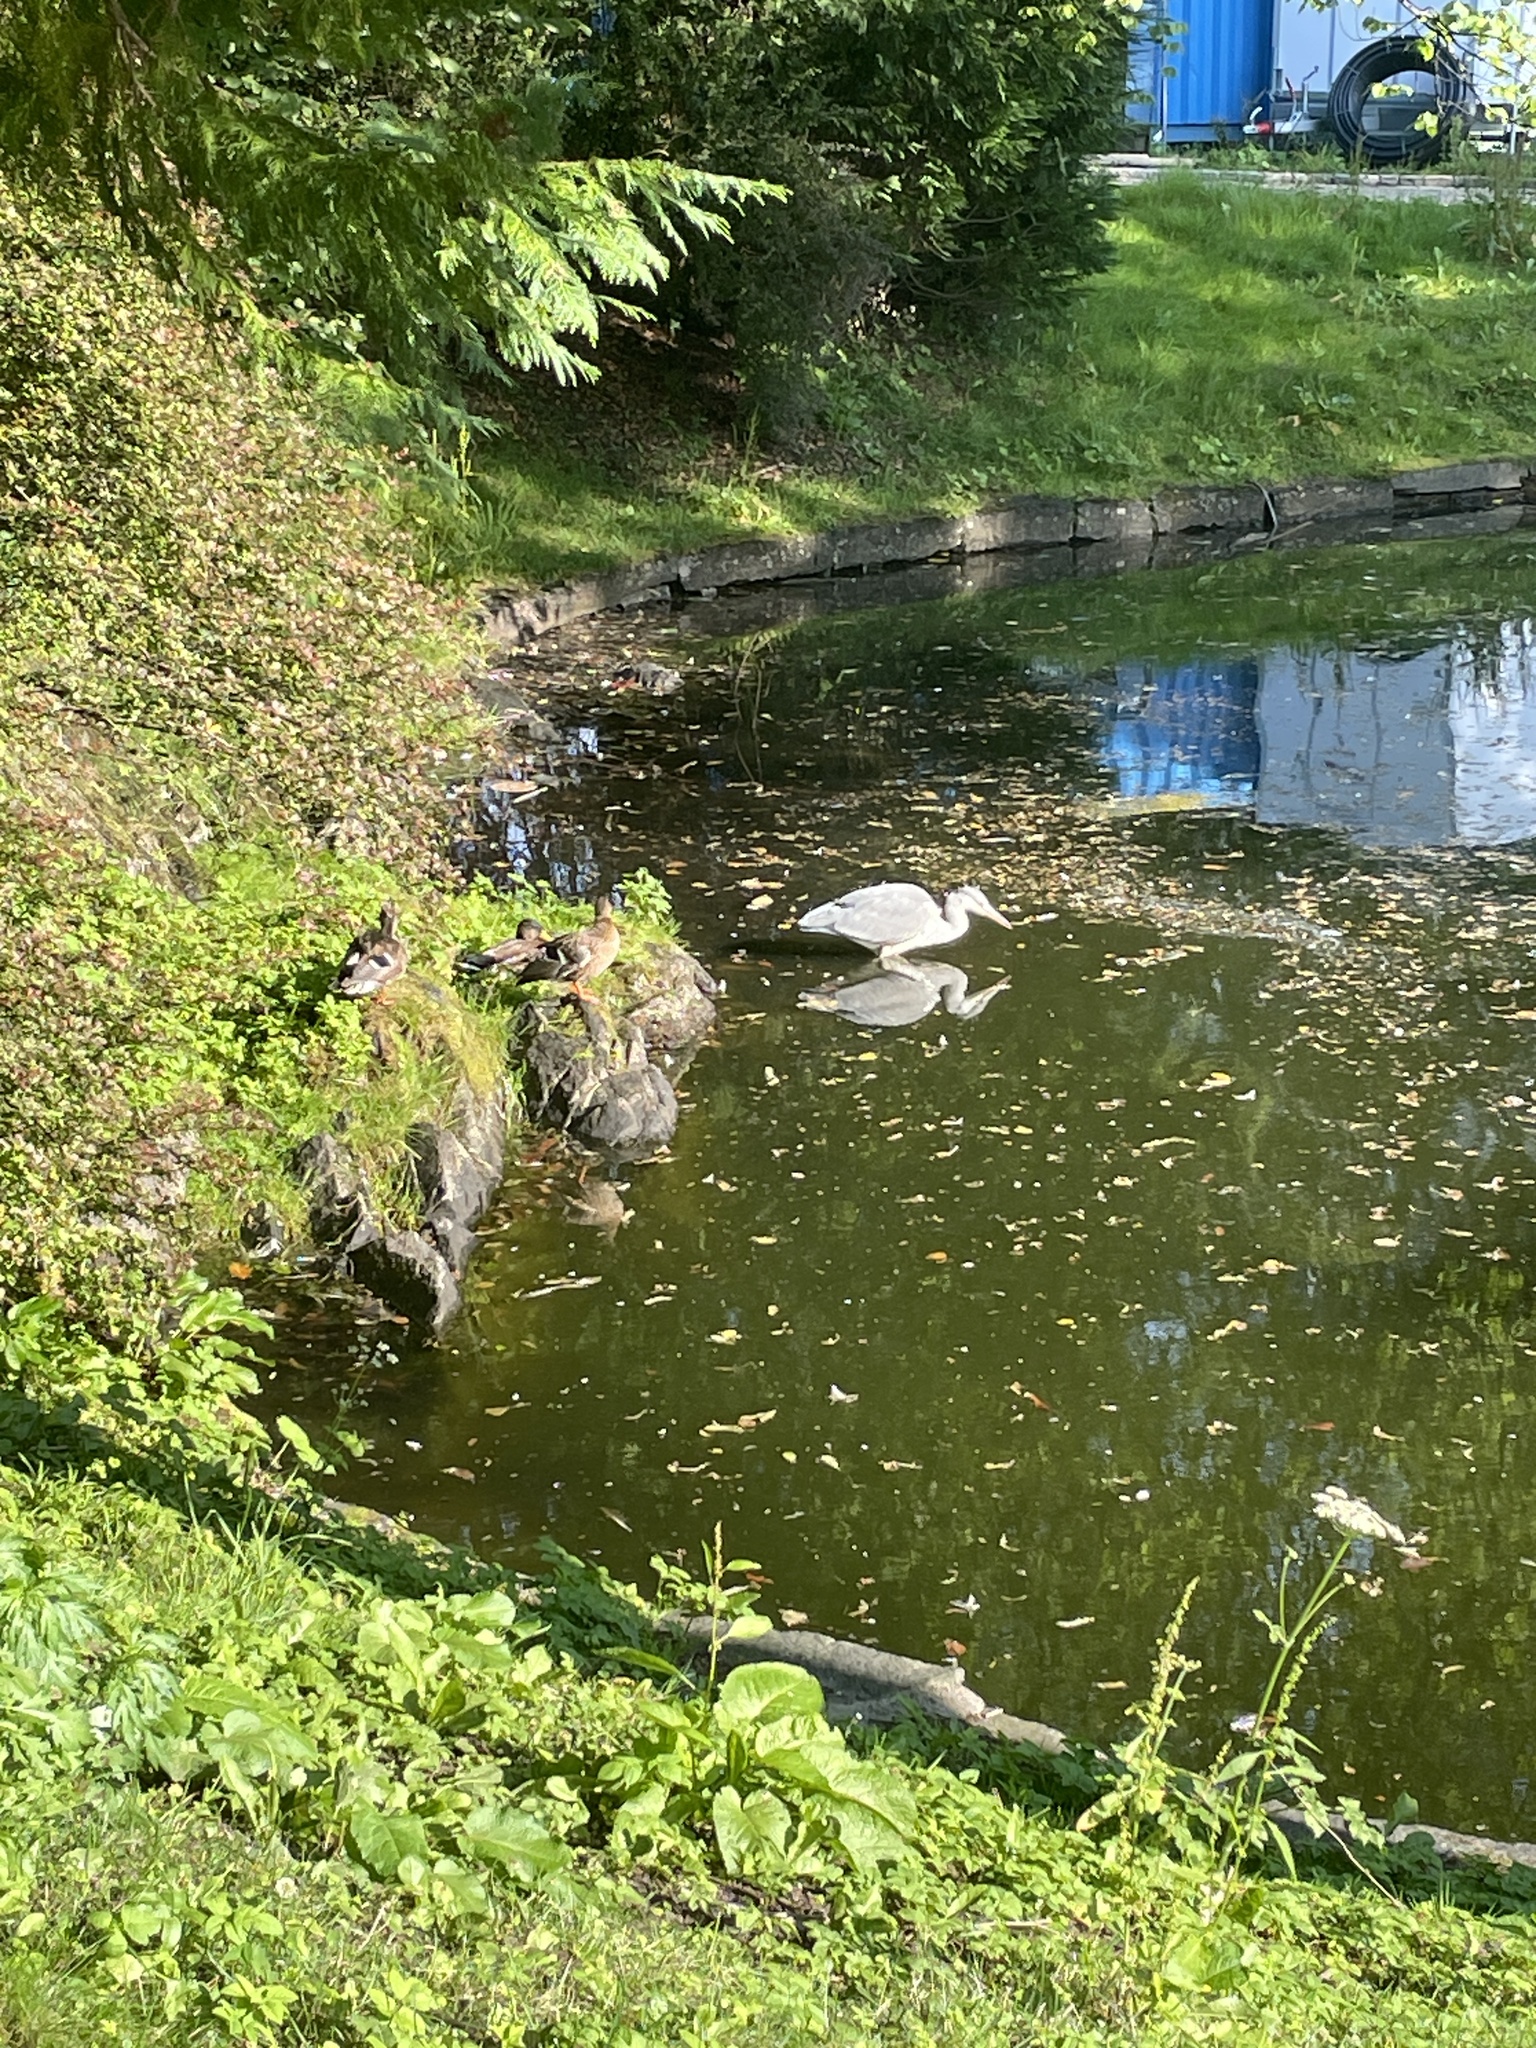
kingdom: Animalia
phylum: Chordata
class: Aves
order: Pelecaniformes
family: Ardeidae
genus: Ardea
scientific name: Ardea cinerea
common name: Grey heron
